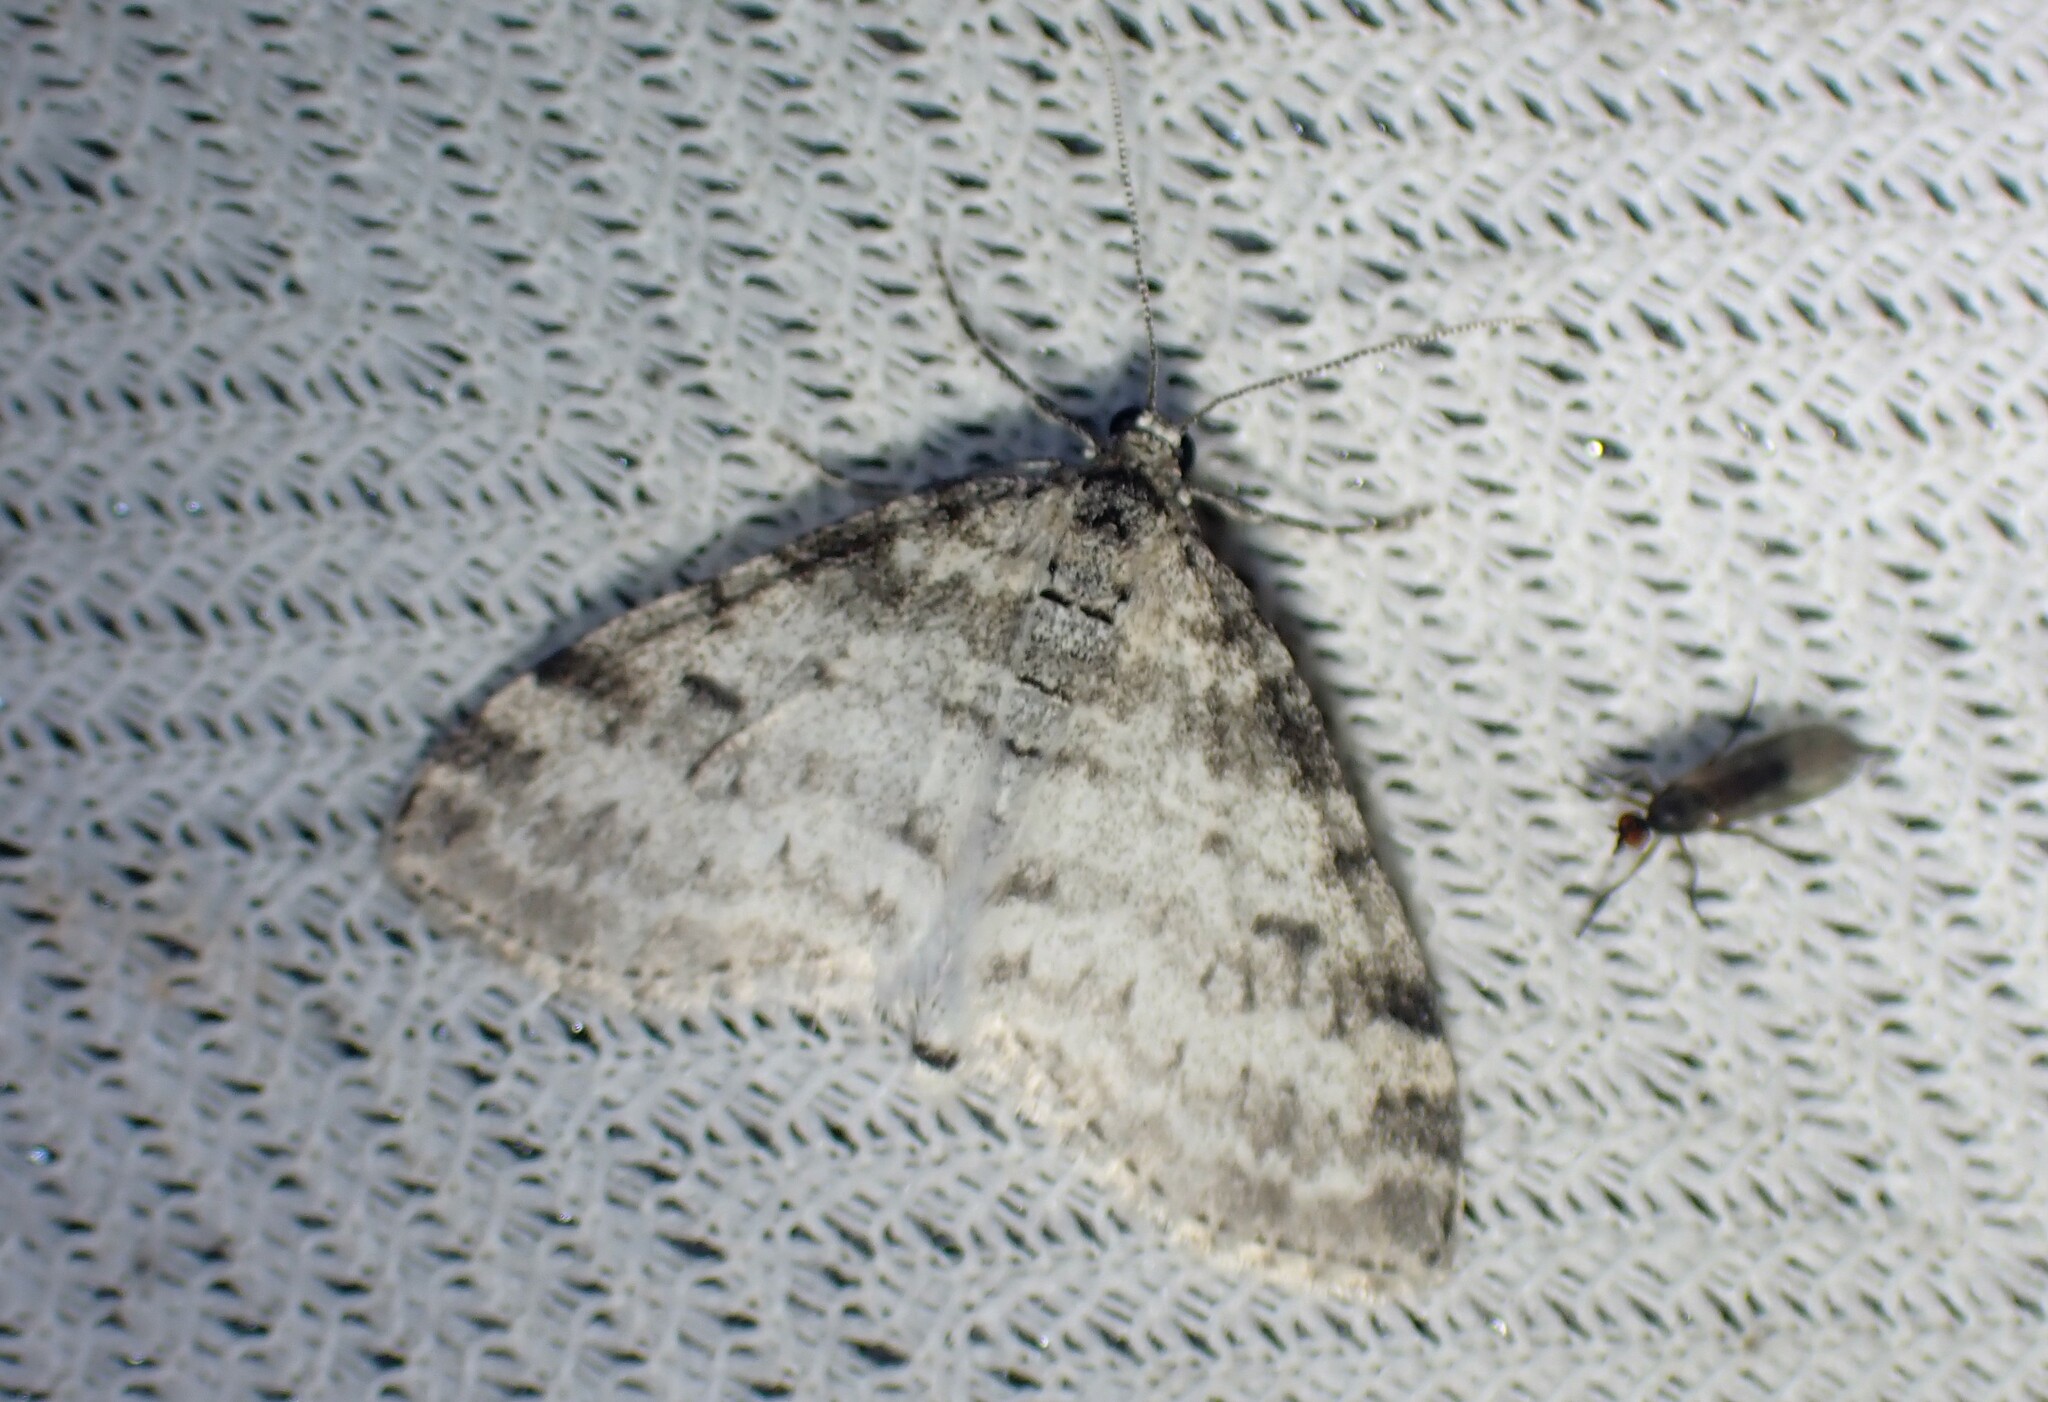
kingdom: Animalia
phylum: Arthropoda
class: Insecta
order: Lepidoptera
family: Geometridae
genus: Lobophora
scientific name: Lobophora nivigerata
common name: Powdered bigwing
